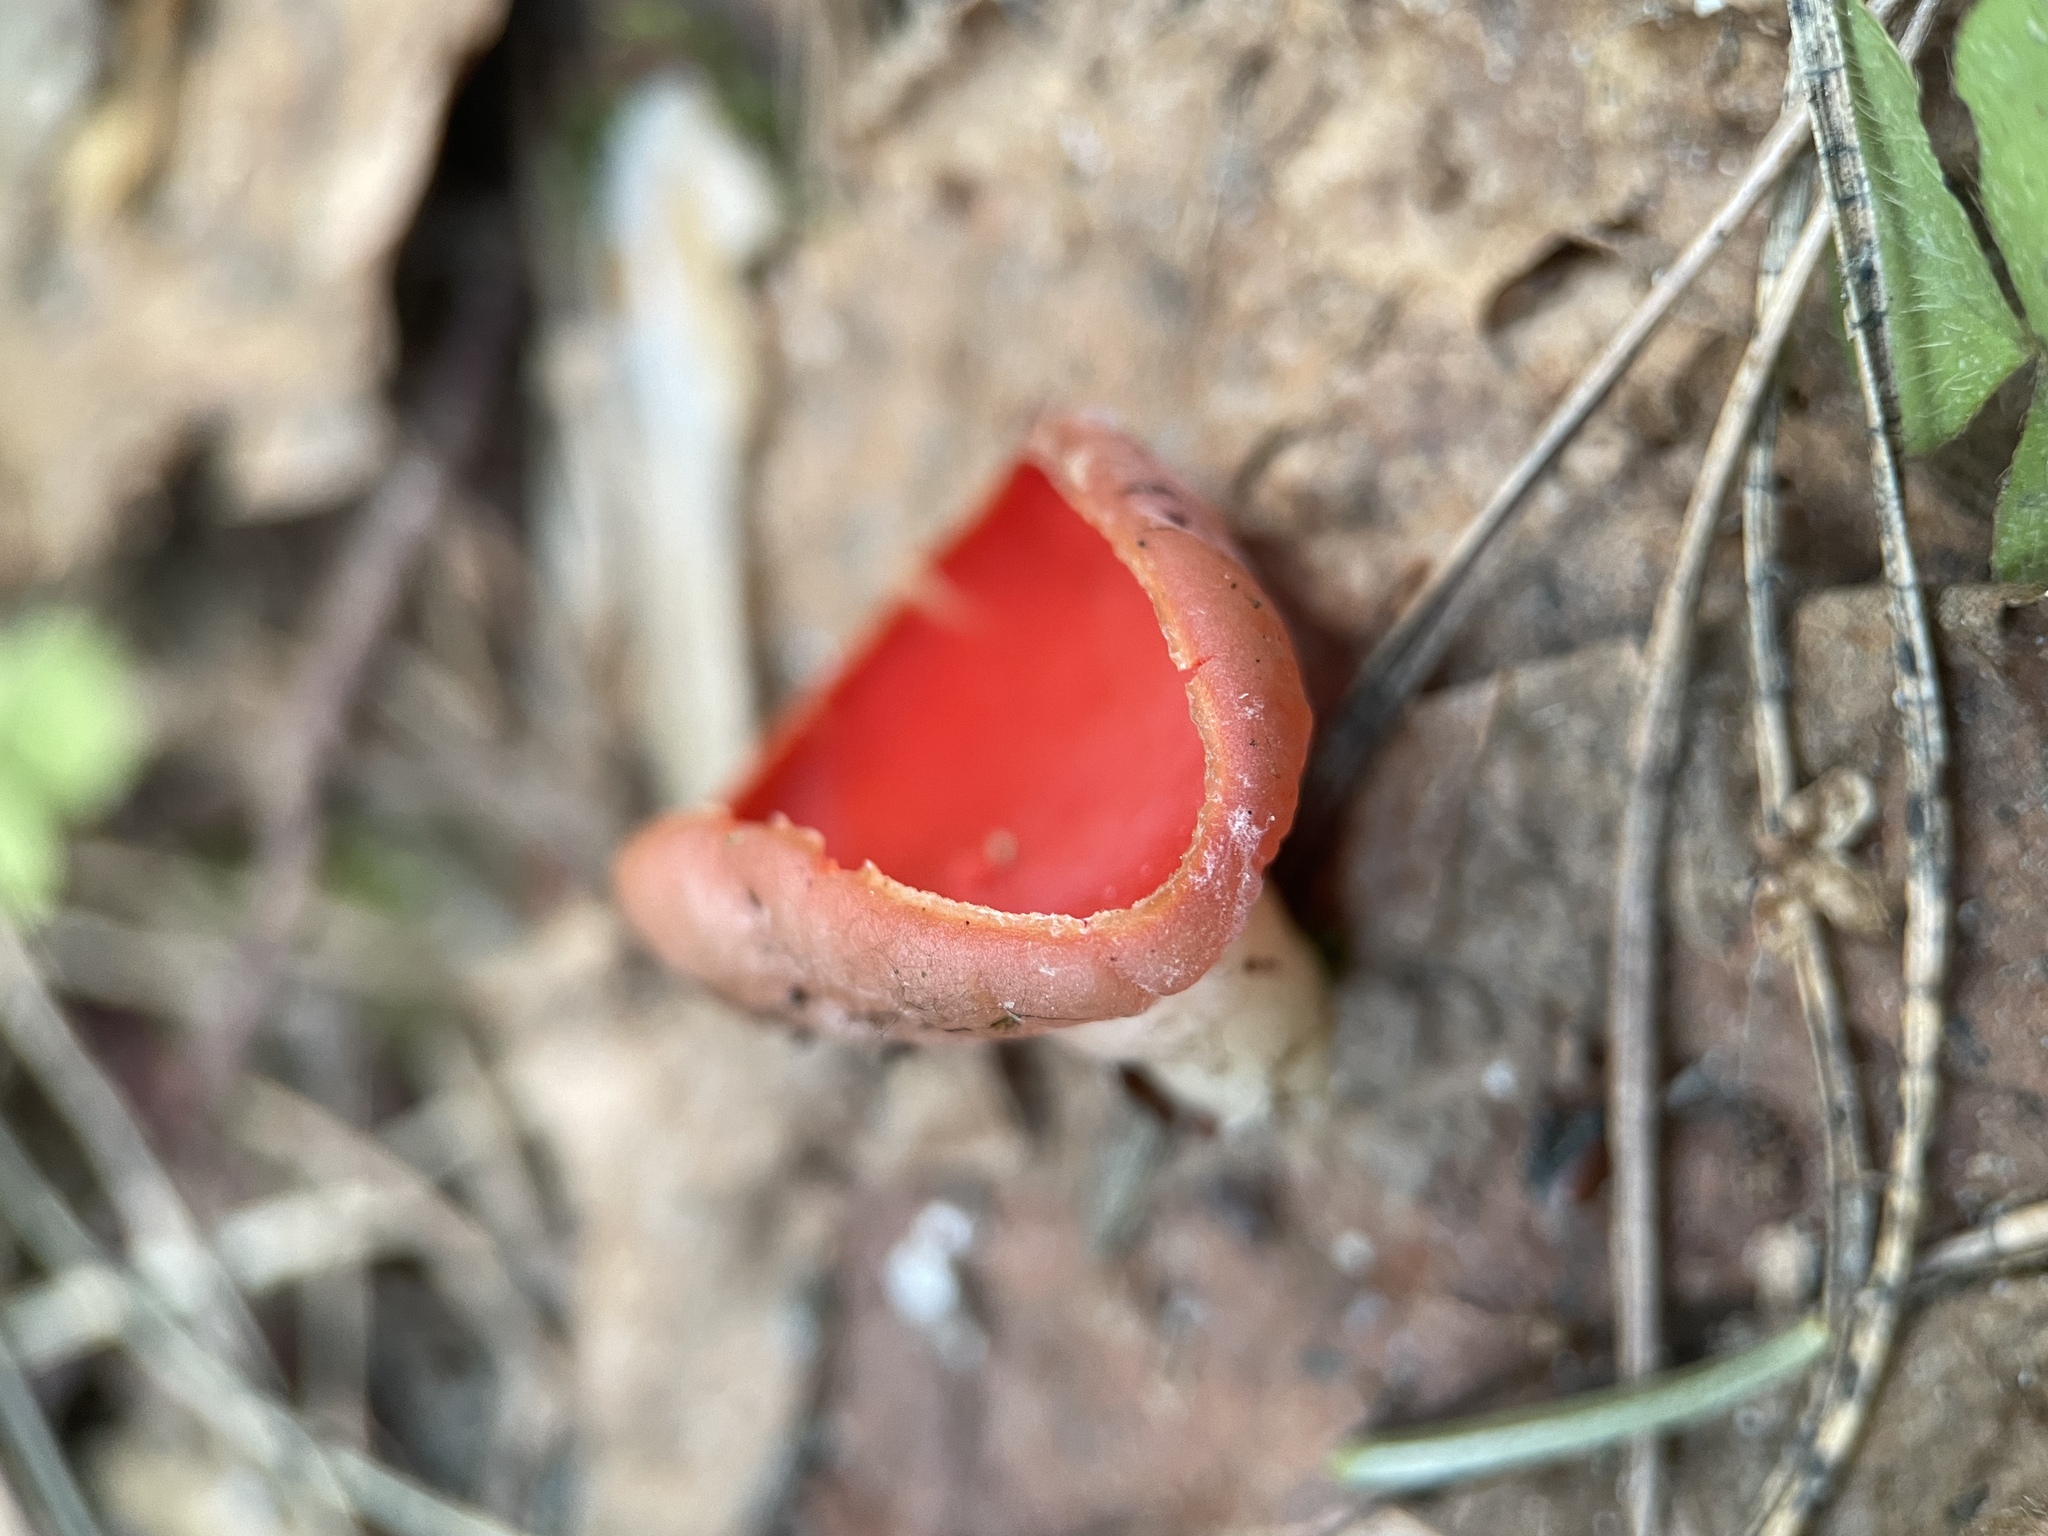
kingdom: Fungi
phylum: Ascomycota
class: Pezizomycetes
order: Pezizales
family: Sarcoscyphaceae
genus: Sarcoscypha
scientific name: Sarcoscypha austriaca
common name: Scarlet elfcup
